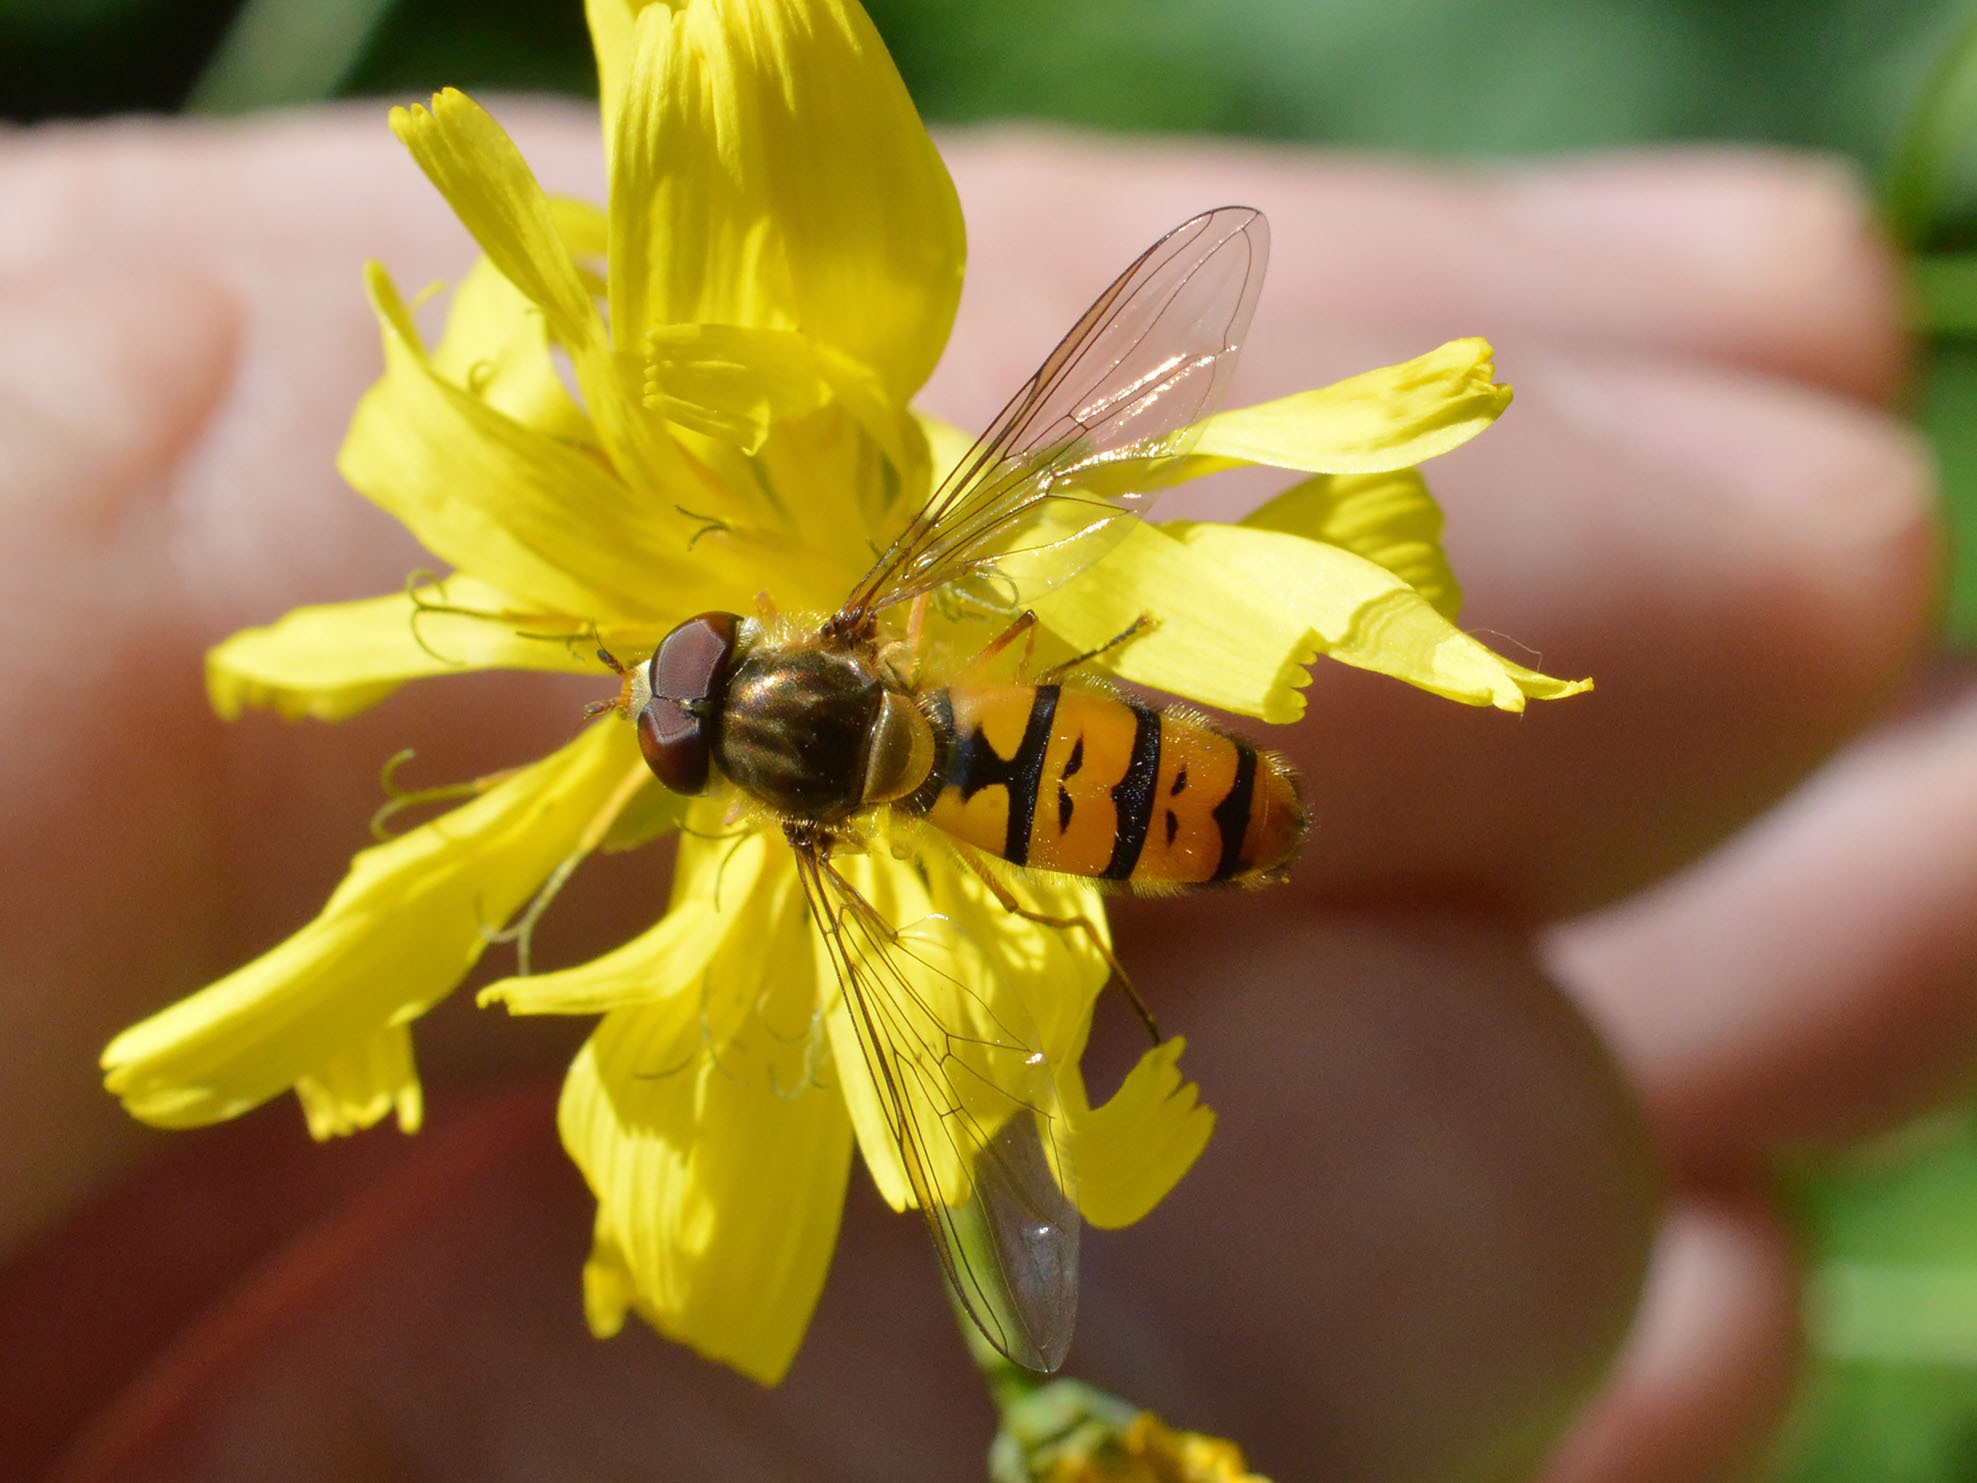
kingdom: Animalia
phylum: Arthropoda
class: Insecta
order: Diptera
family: Syrphidae
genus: Episyrphus
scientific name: Episyrphus balteatus
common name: Marmalade hoverfly
